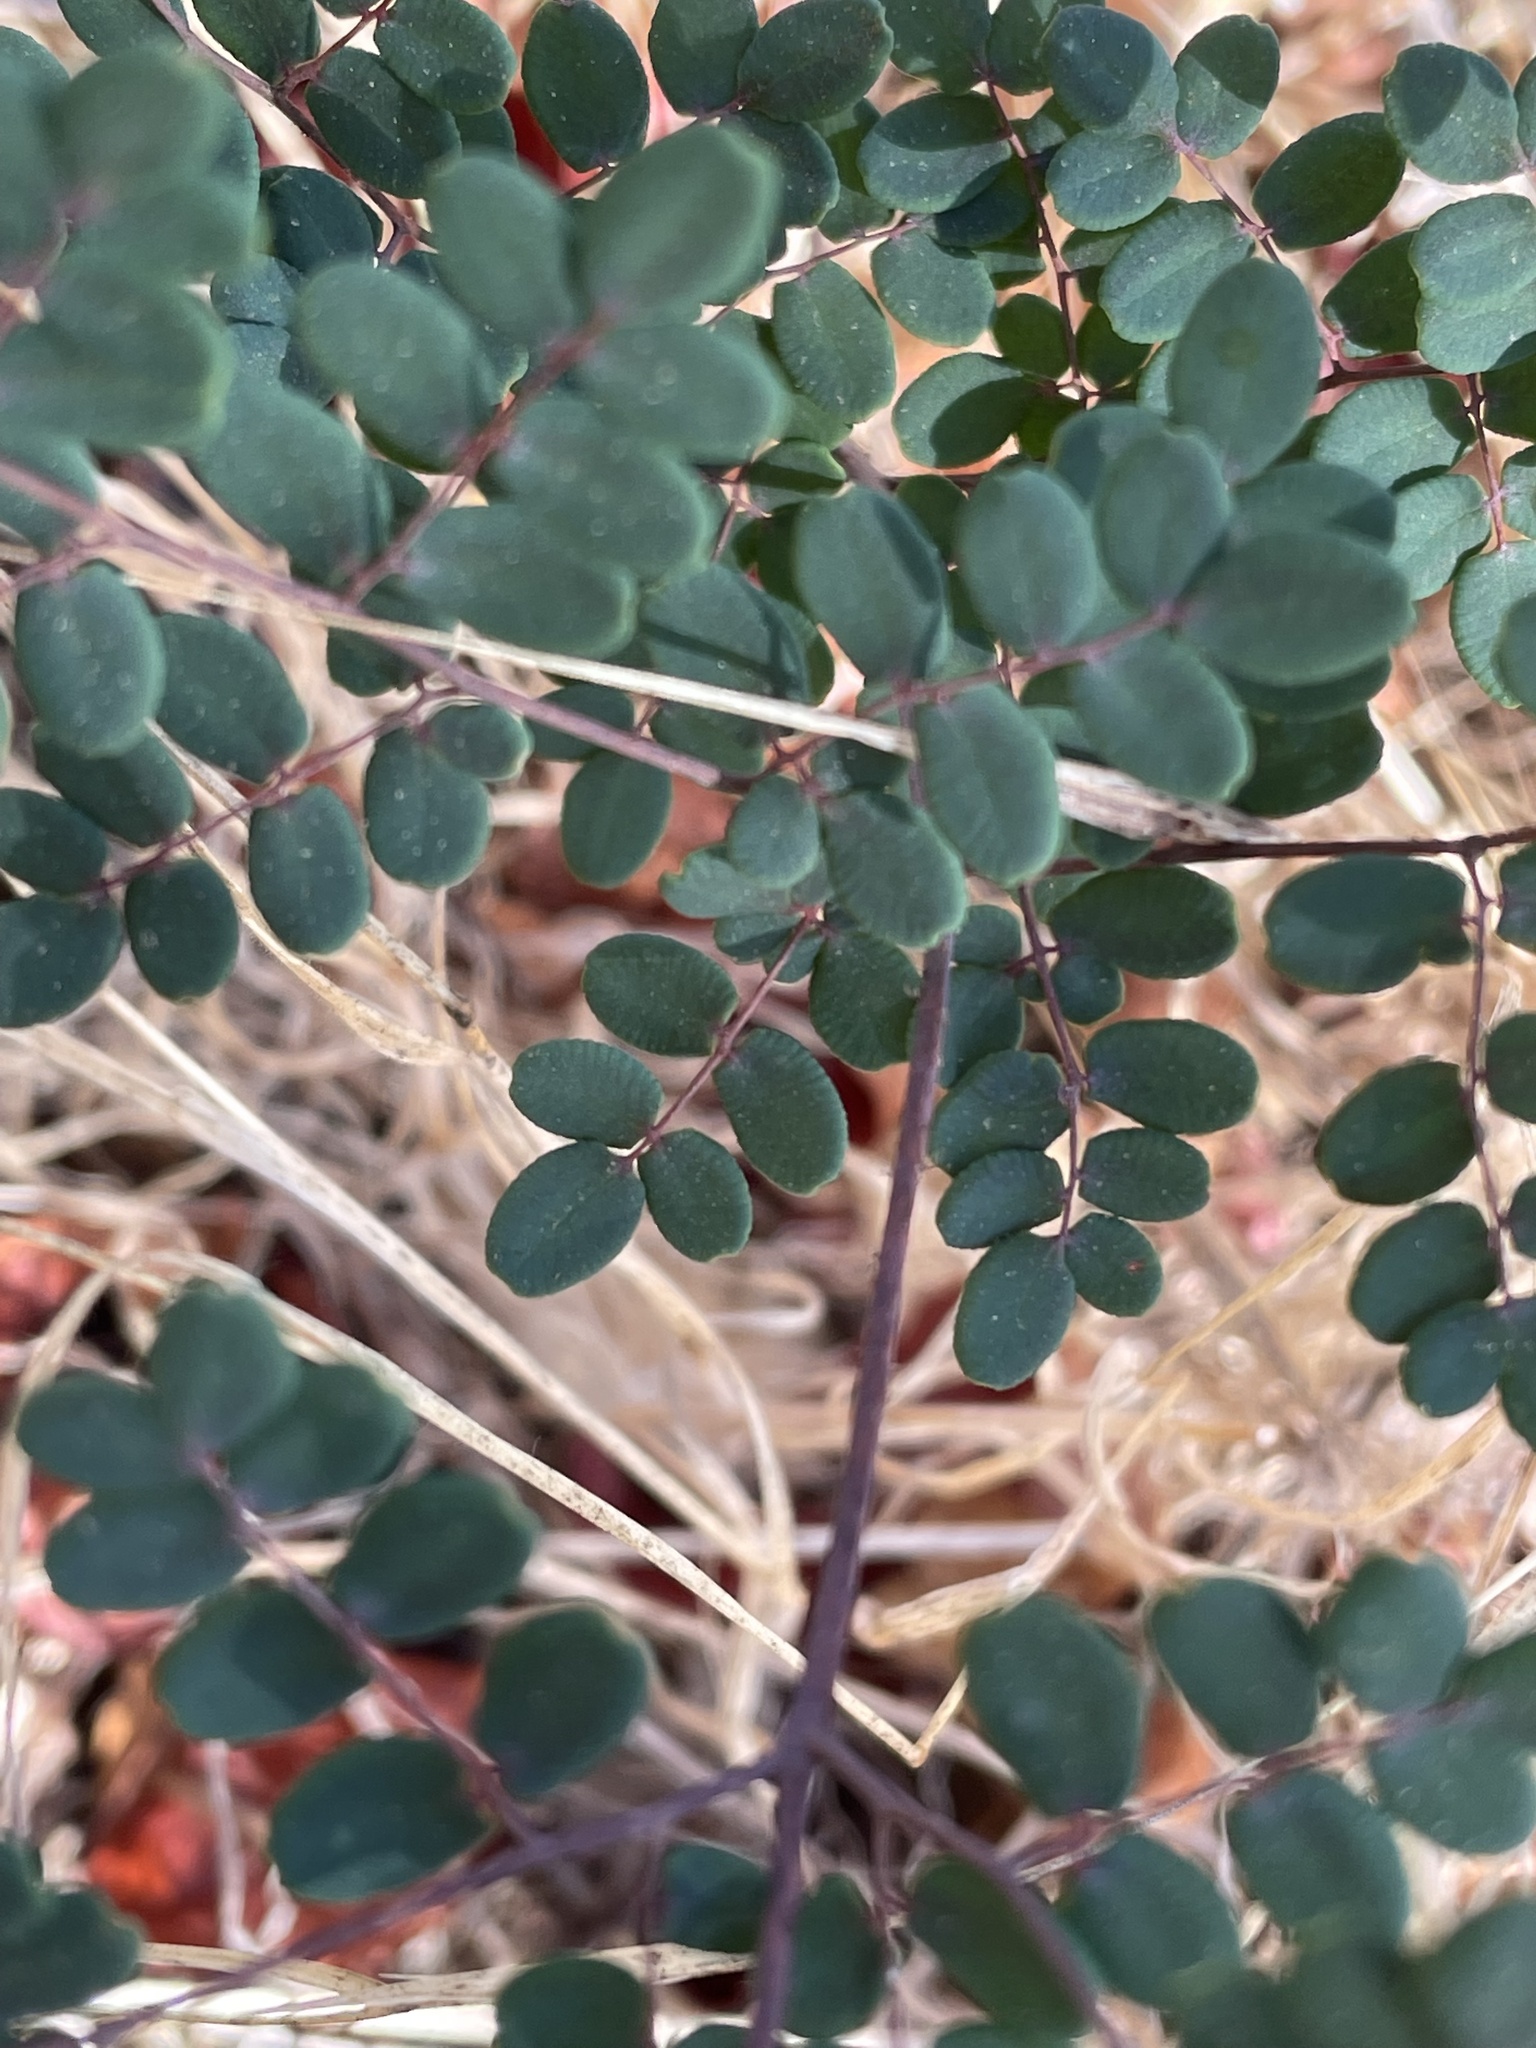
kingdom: Plantae
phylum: Tracheophyta
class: Polypodiopsida
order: Polypodiales
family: Pteridaceae
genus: Pellaea
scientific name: Pellaea andromedifolia
